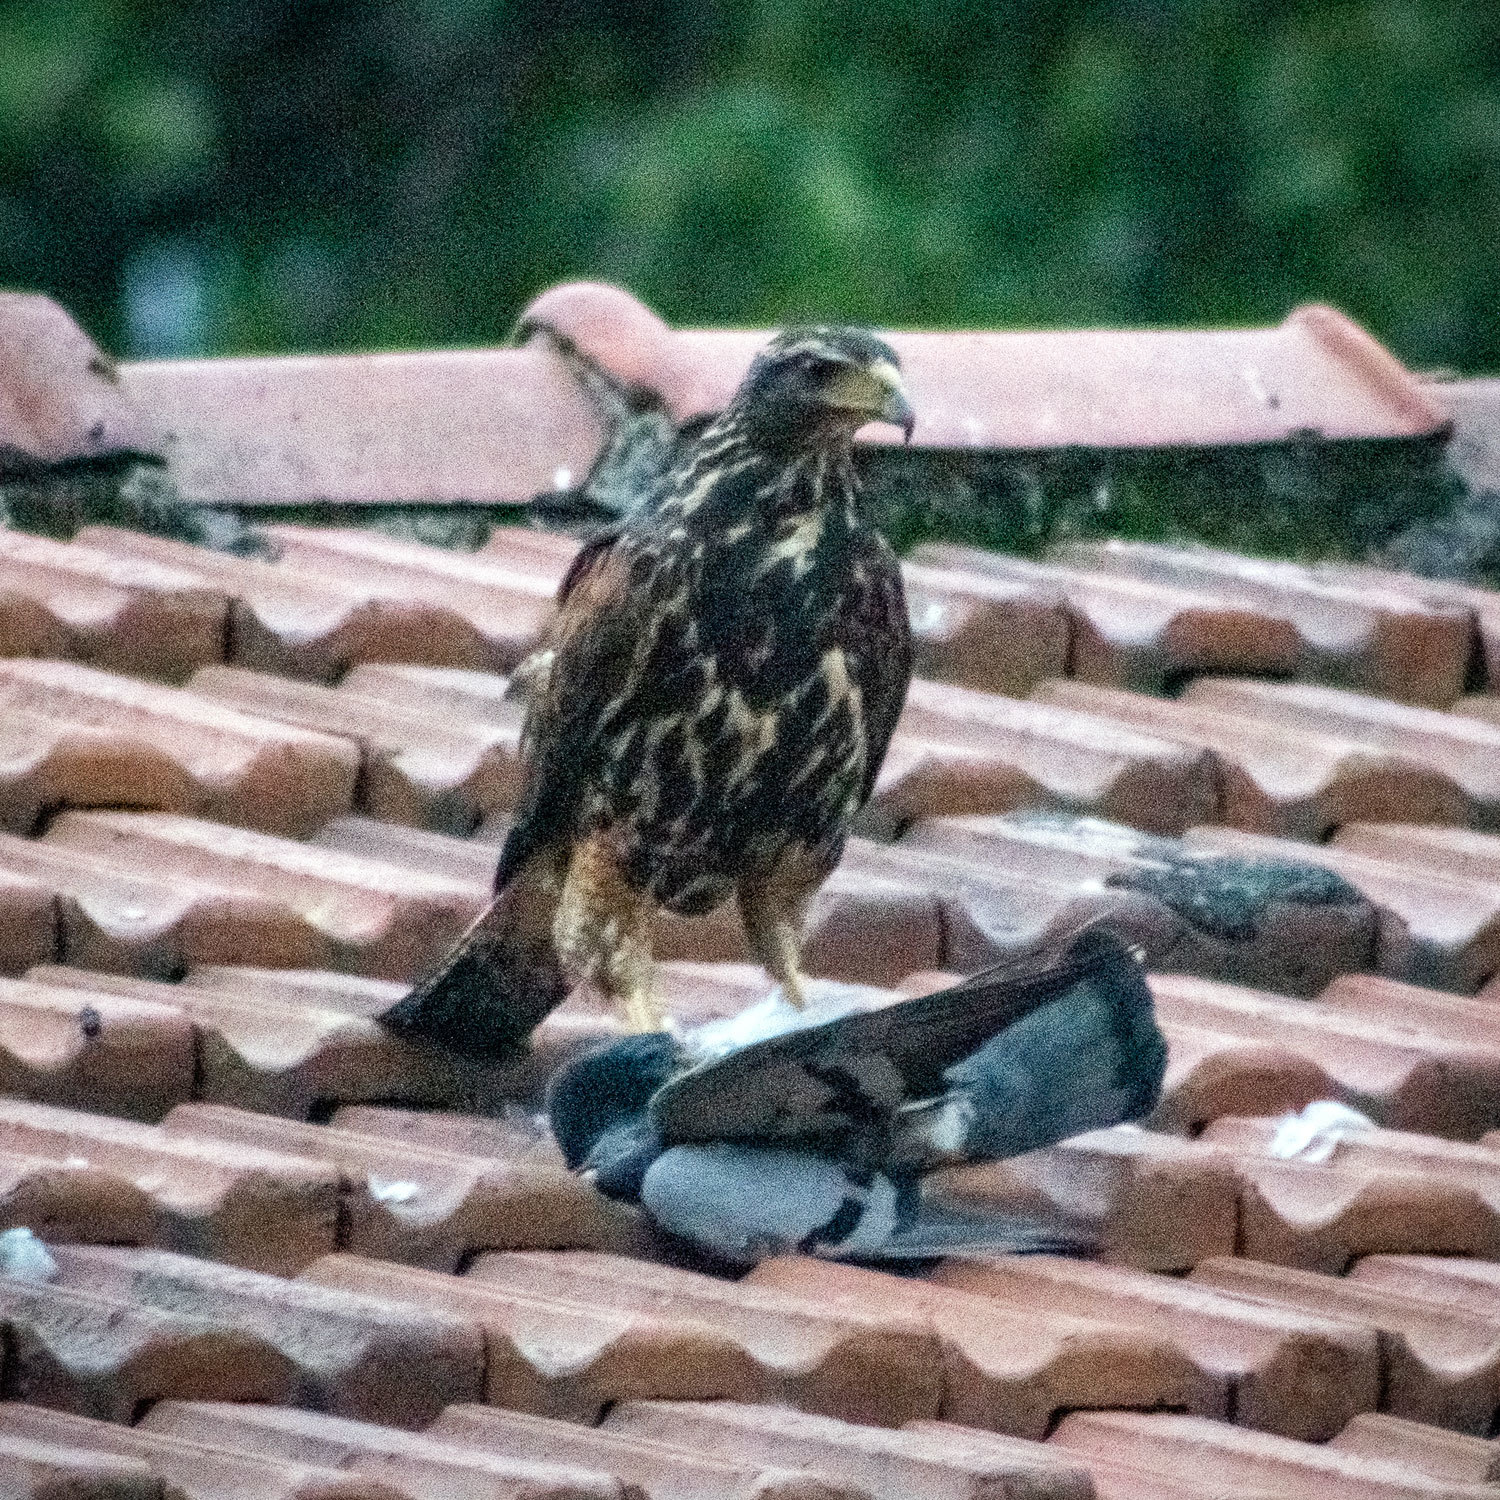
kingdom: Animalia
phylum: Chordata
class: Aves
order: Accipitriformes
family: Accipitridae
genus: Parabuteo
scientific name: Parabuteo unicinctus
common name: Harris's hawk
